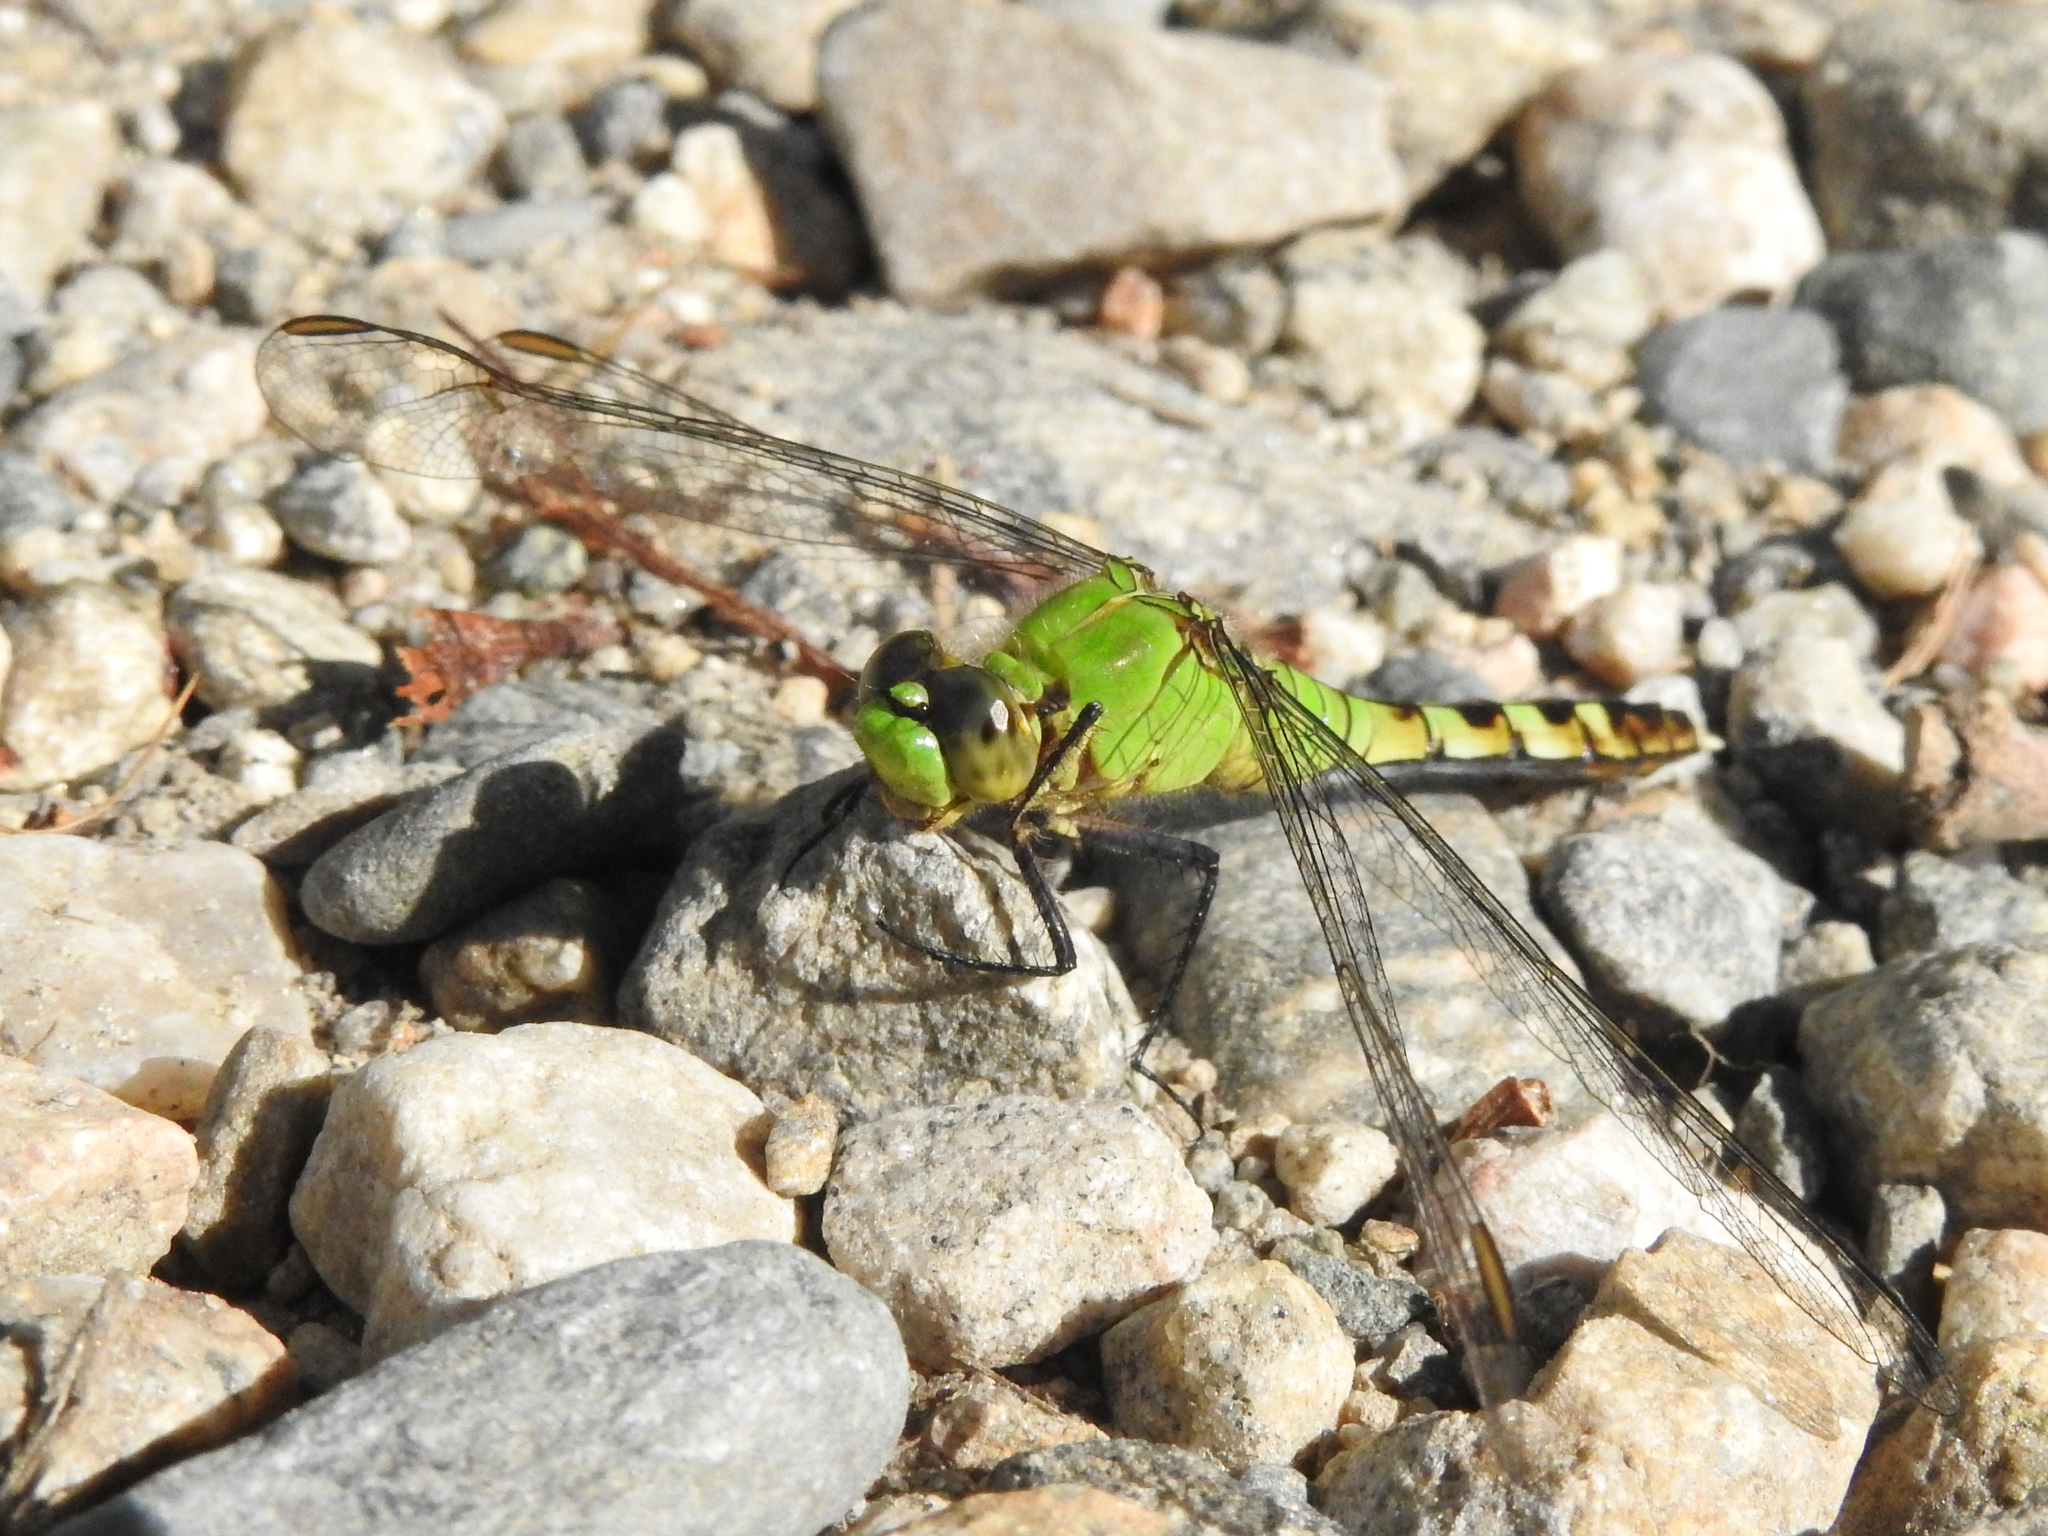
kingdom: Animalia
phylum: Arthropoda
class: Insecta
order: Odonata
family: Libellulidae
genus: Erythemis
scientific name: Erythemis simplicicollis
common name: Eastern pondhawk
